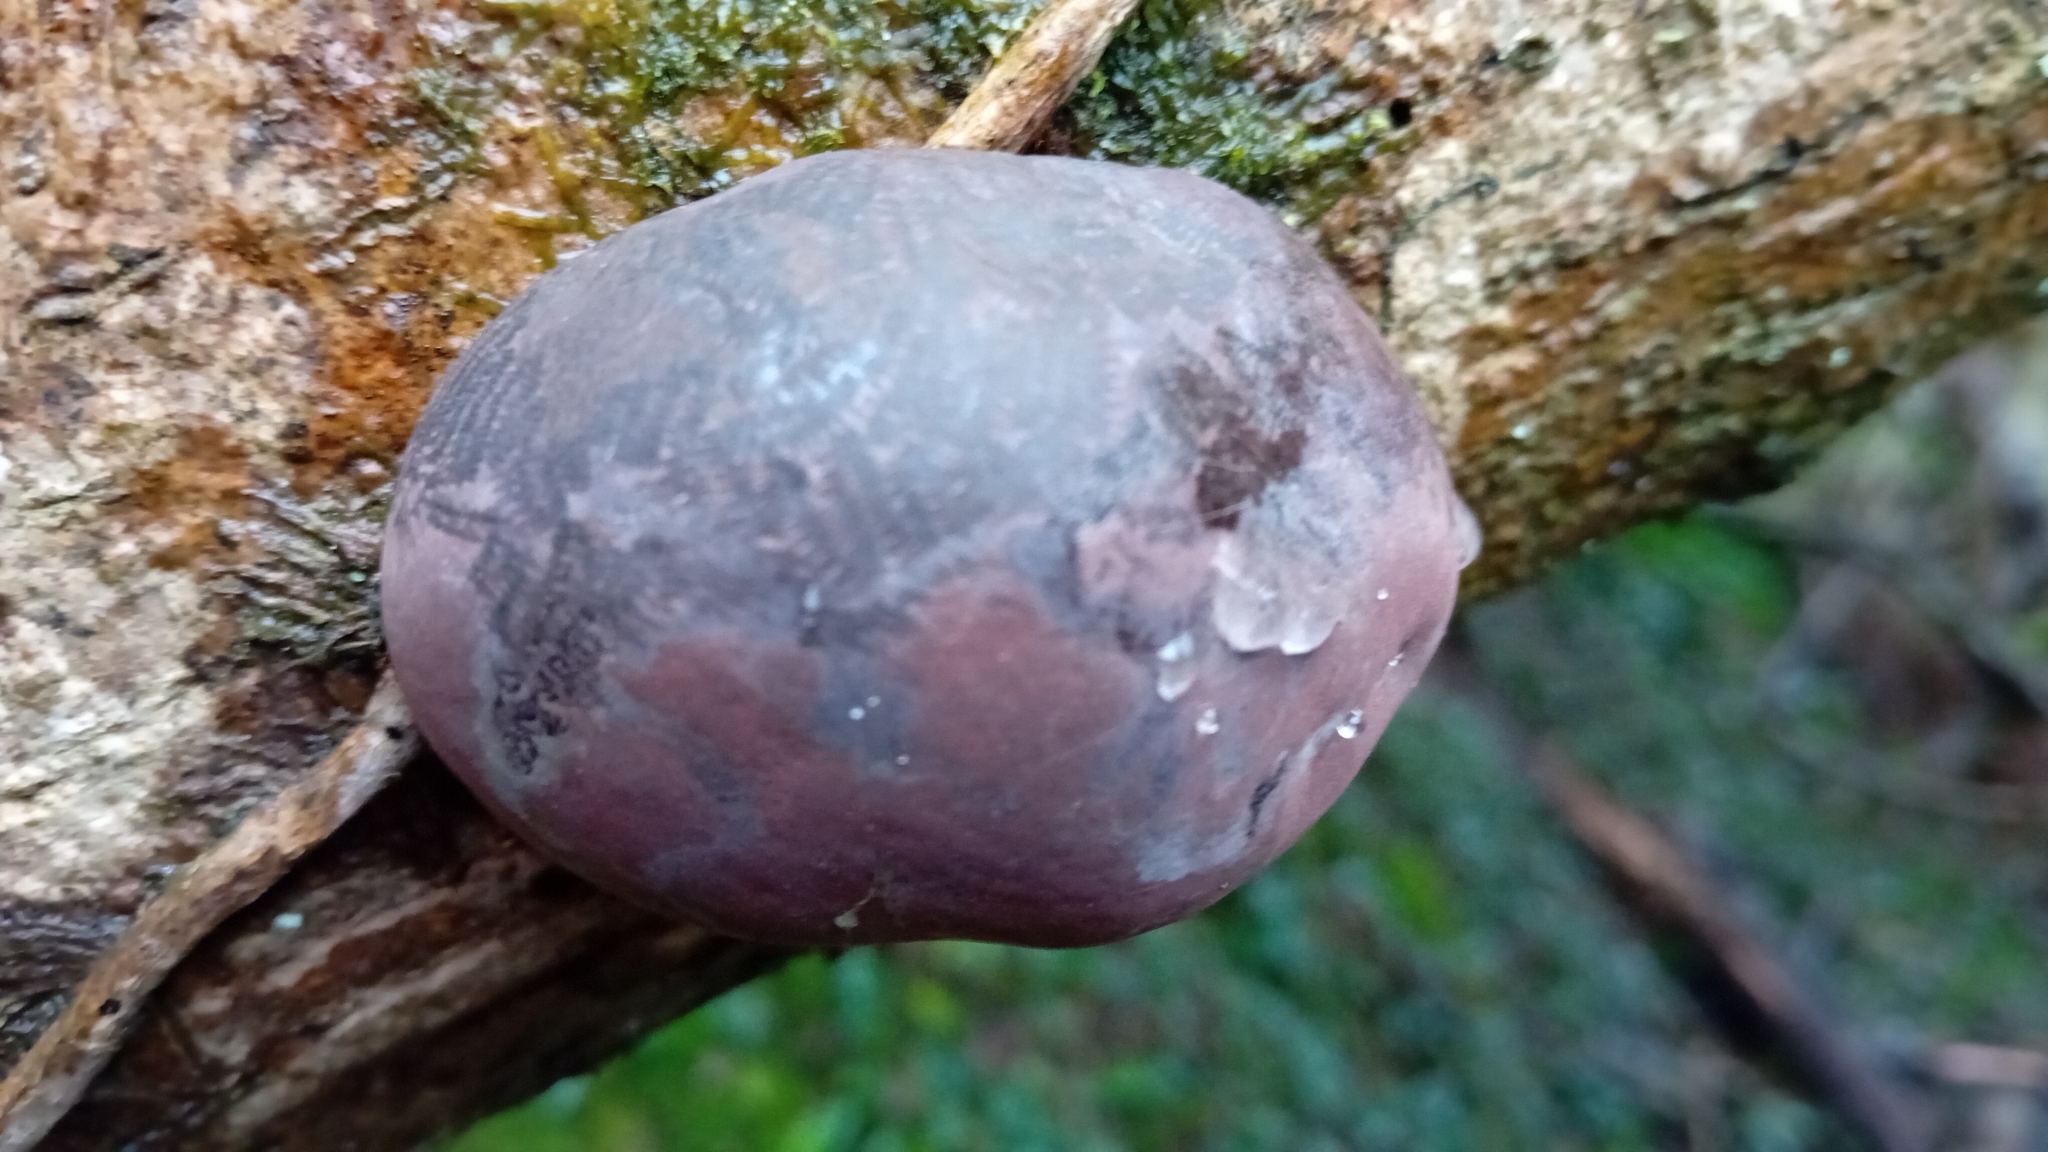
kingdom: Fungi
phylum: Ascomycota
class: Sordariomycetes
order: Xylariales
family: Hypoxylaceae
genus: Daldinia
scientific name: Daldinia concentrica
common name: Cramp balls
